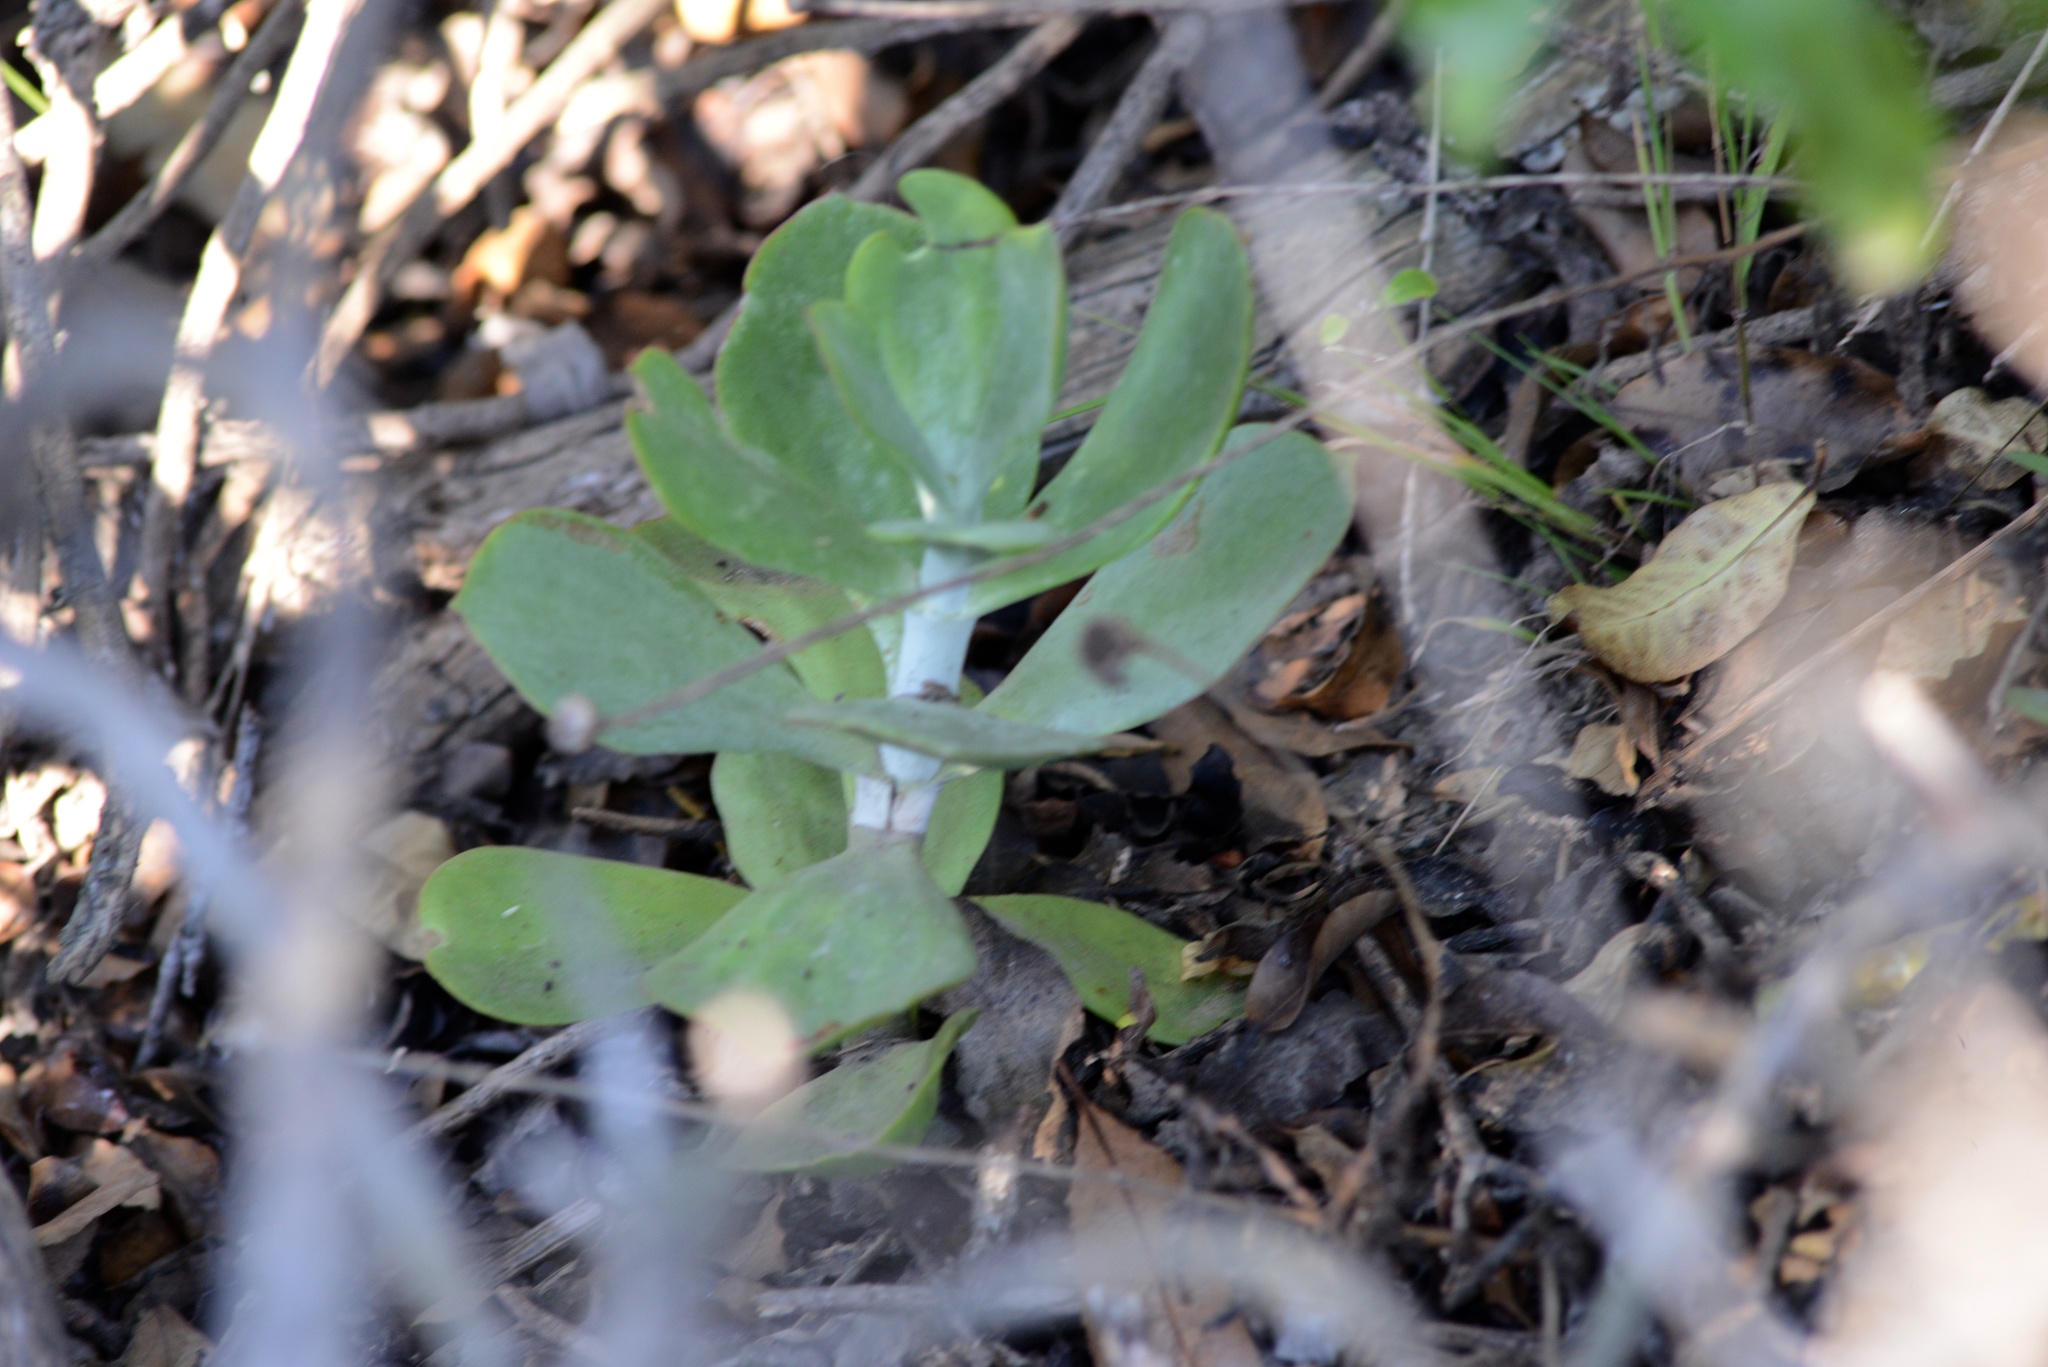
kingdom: Plantae
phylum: Tracheophyta
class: Magnoliopsida
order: Saxifragales
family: Crassulaceae
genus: Cotyledon
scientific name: Cotyledon orbiculata
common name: Pig's ear
